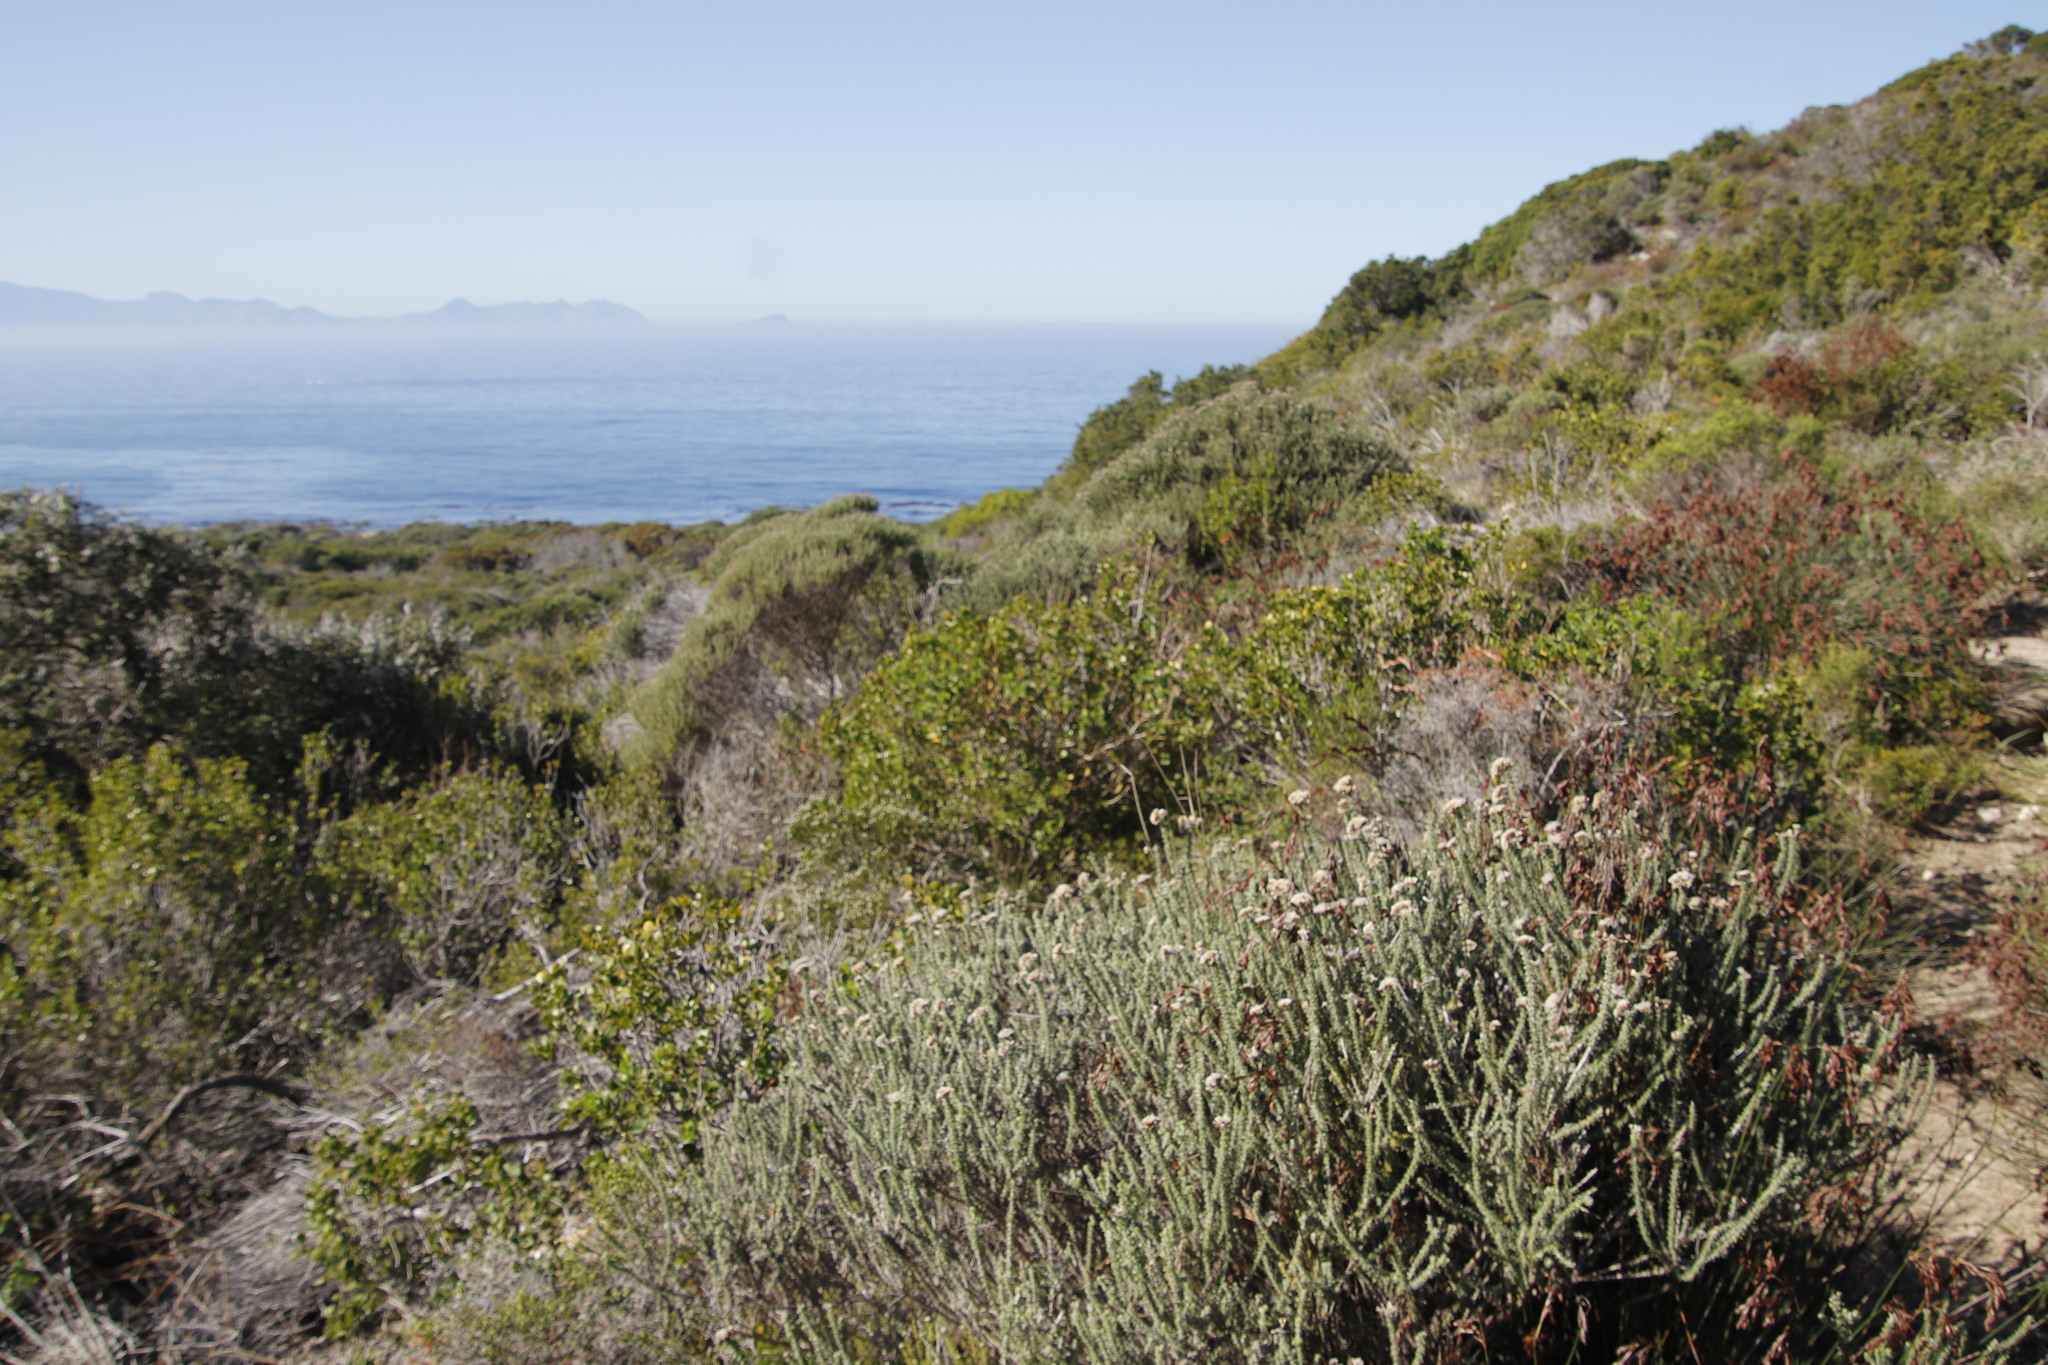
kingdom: Plantae
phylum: Tracheophyta
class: Magnoliopsida
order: Fabales
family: Polygalaceae
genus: Polygala
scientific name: Polygala myrtifolia
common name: Myrtle-leaf milkwort
